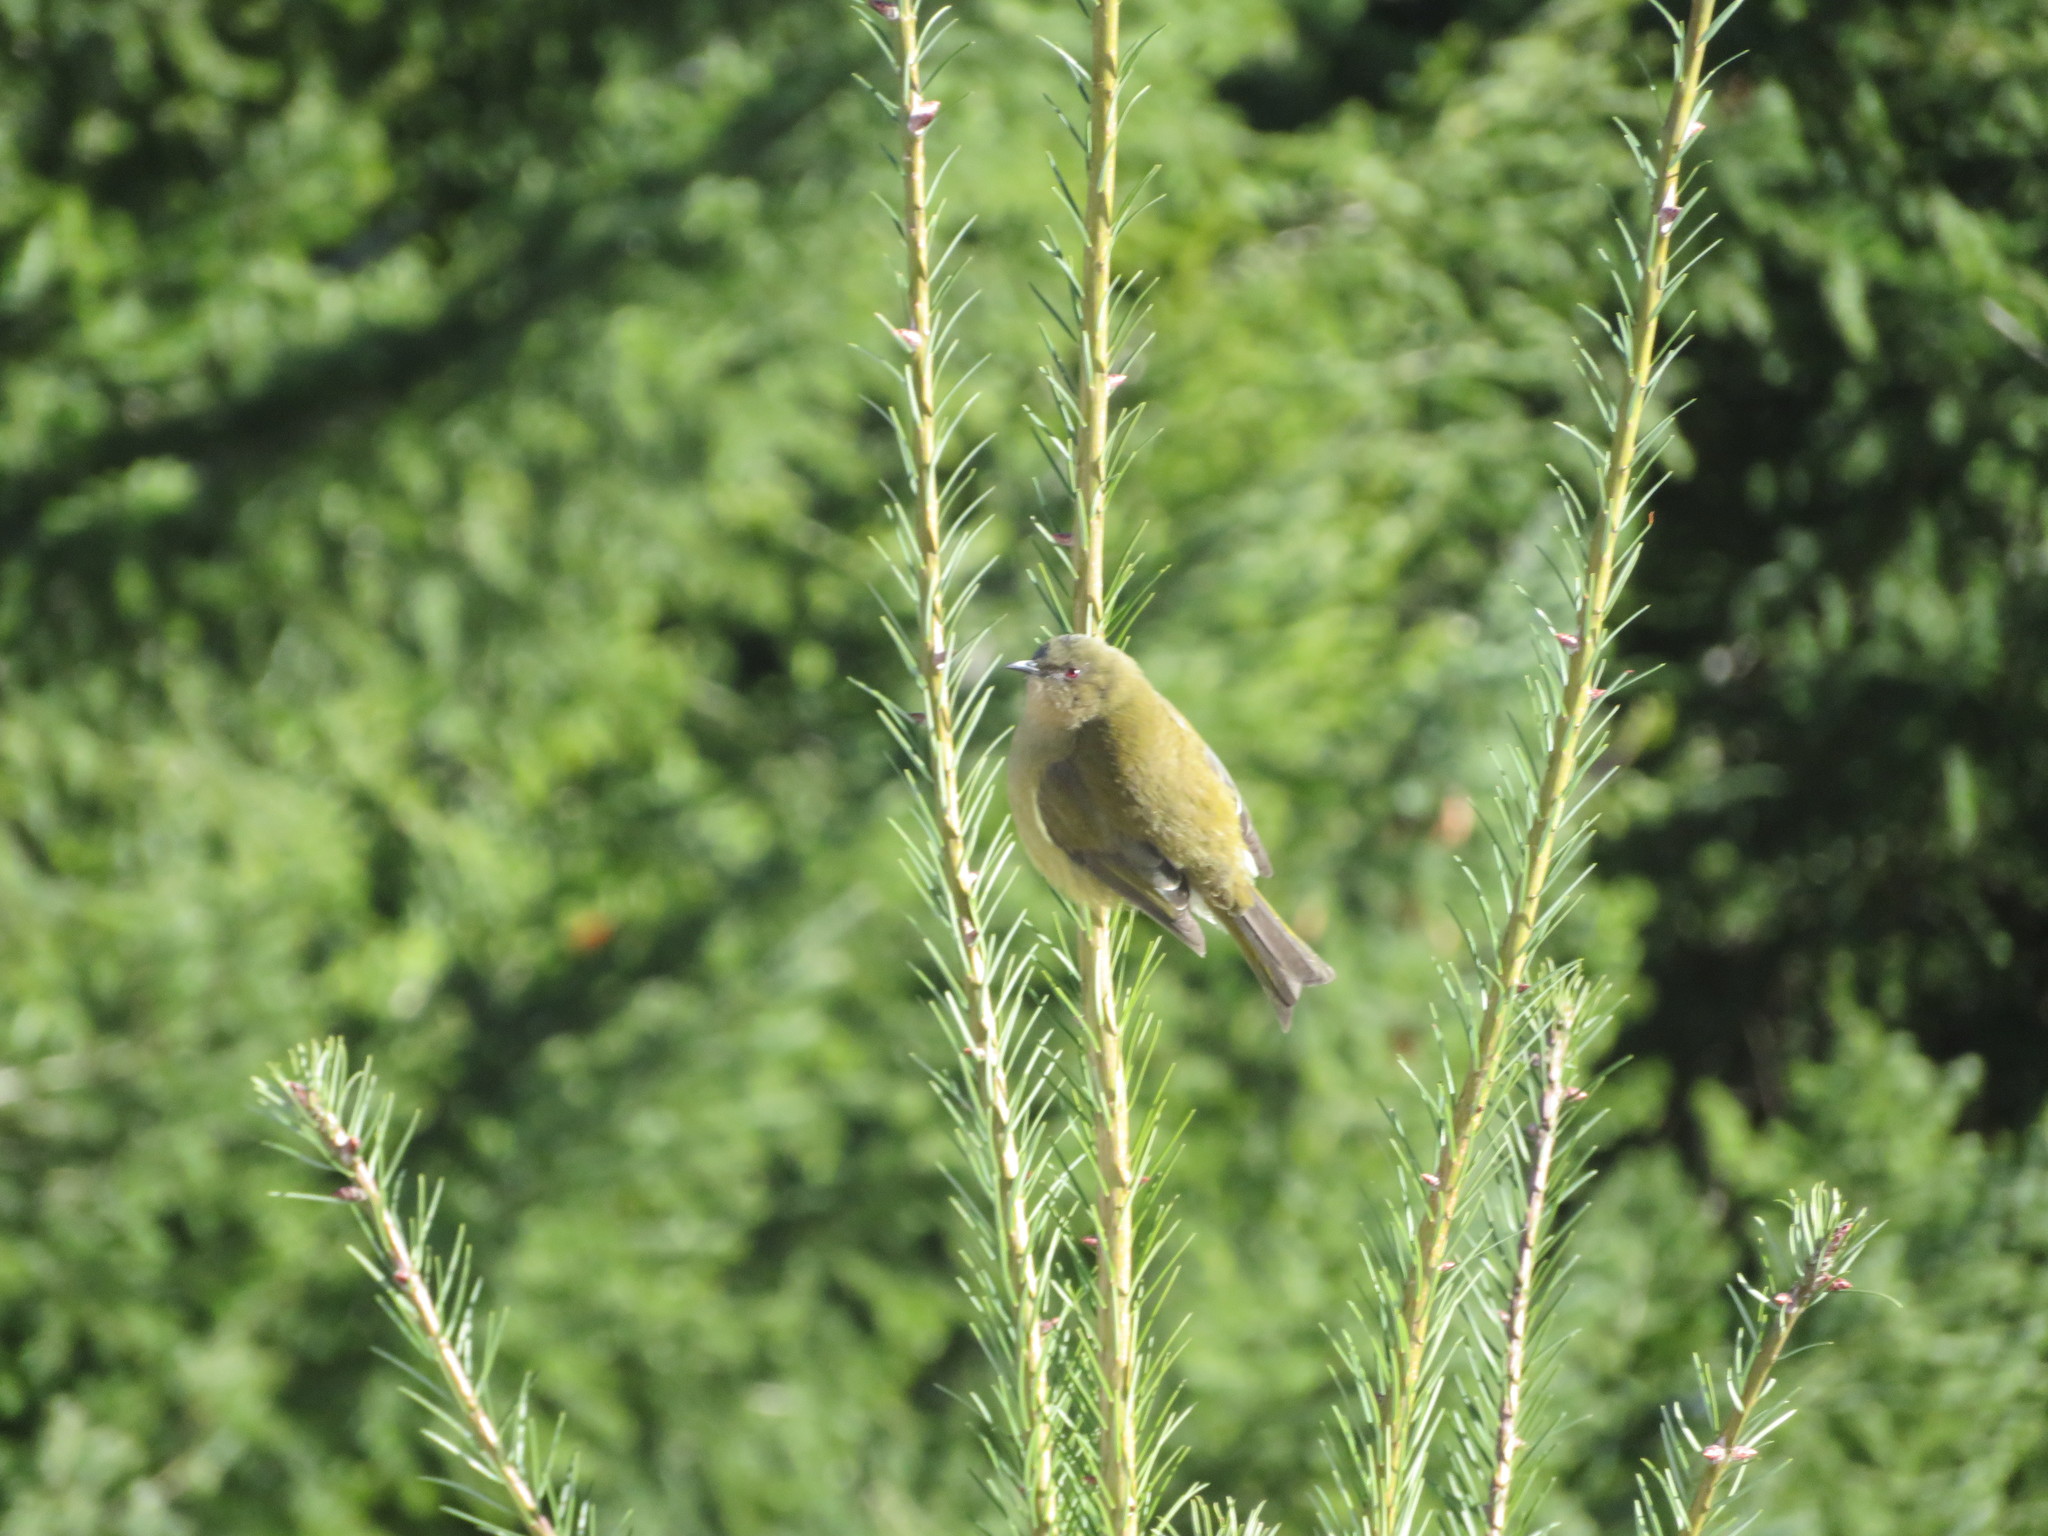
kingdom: Animalia
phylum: Chordata
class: Aves
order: Passeriformes
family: Meliphagidae
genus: Anthornis
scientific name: Anthornis melanura
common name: New zealand bellbird
